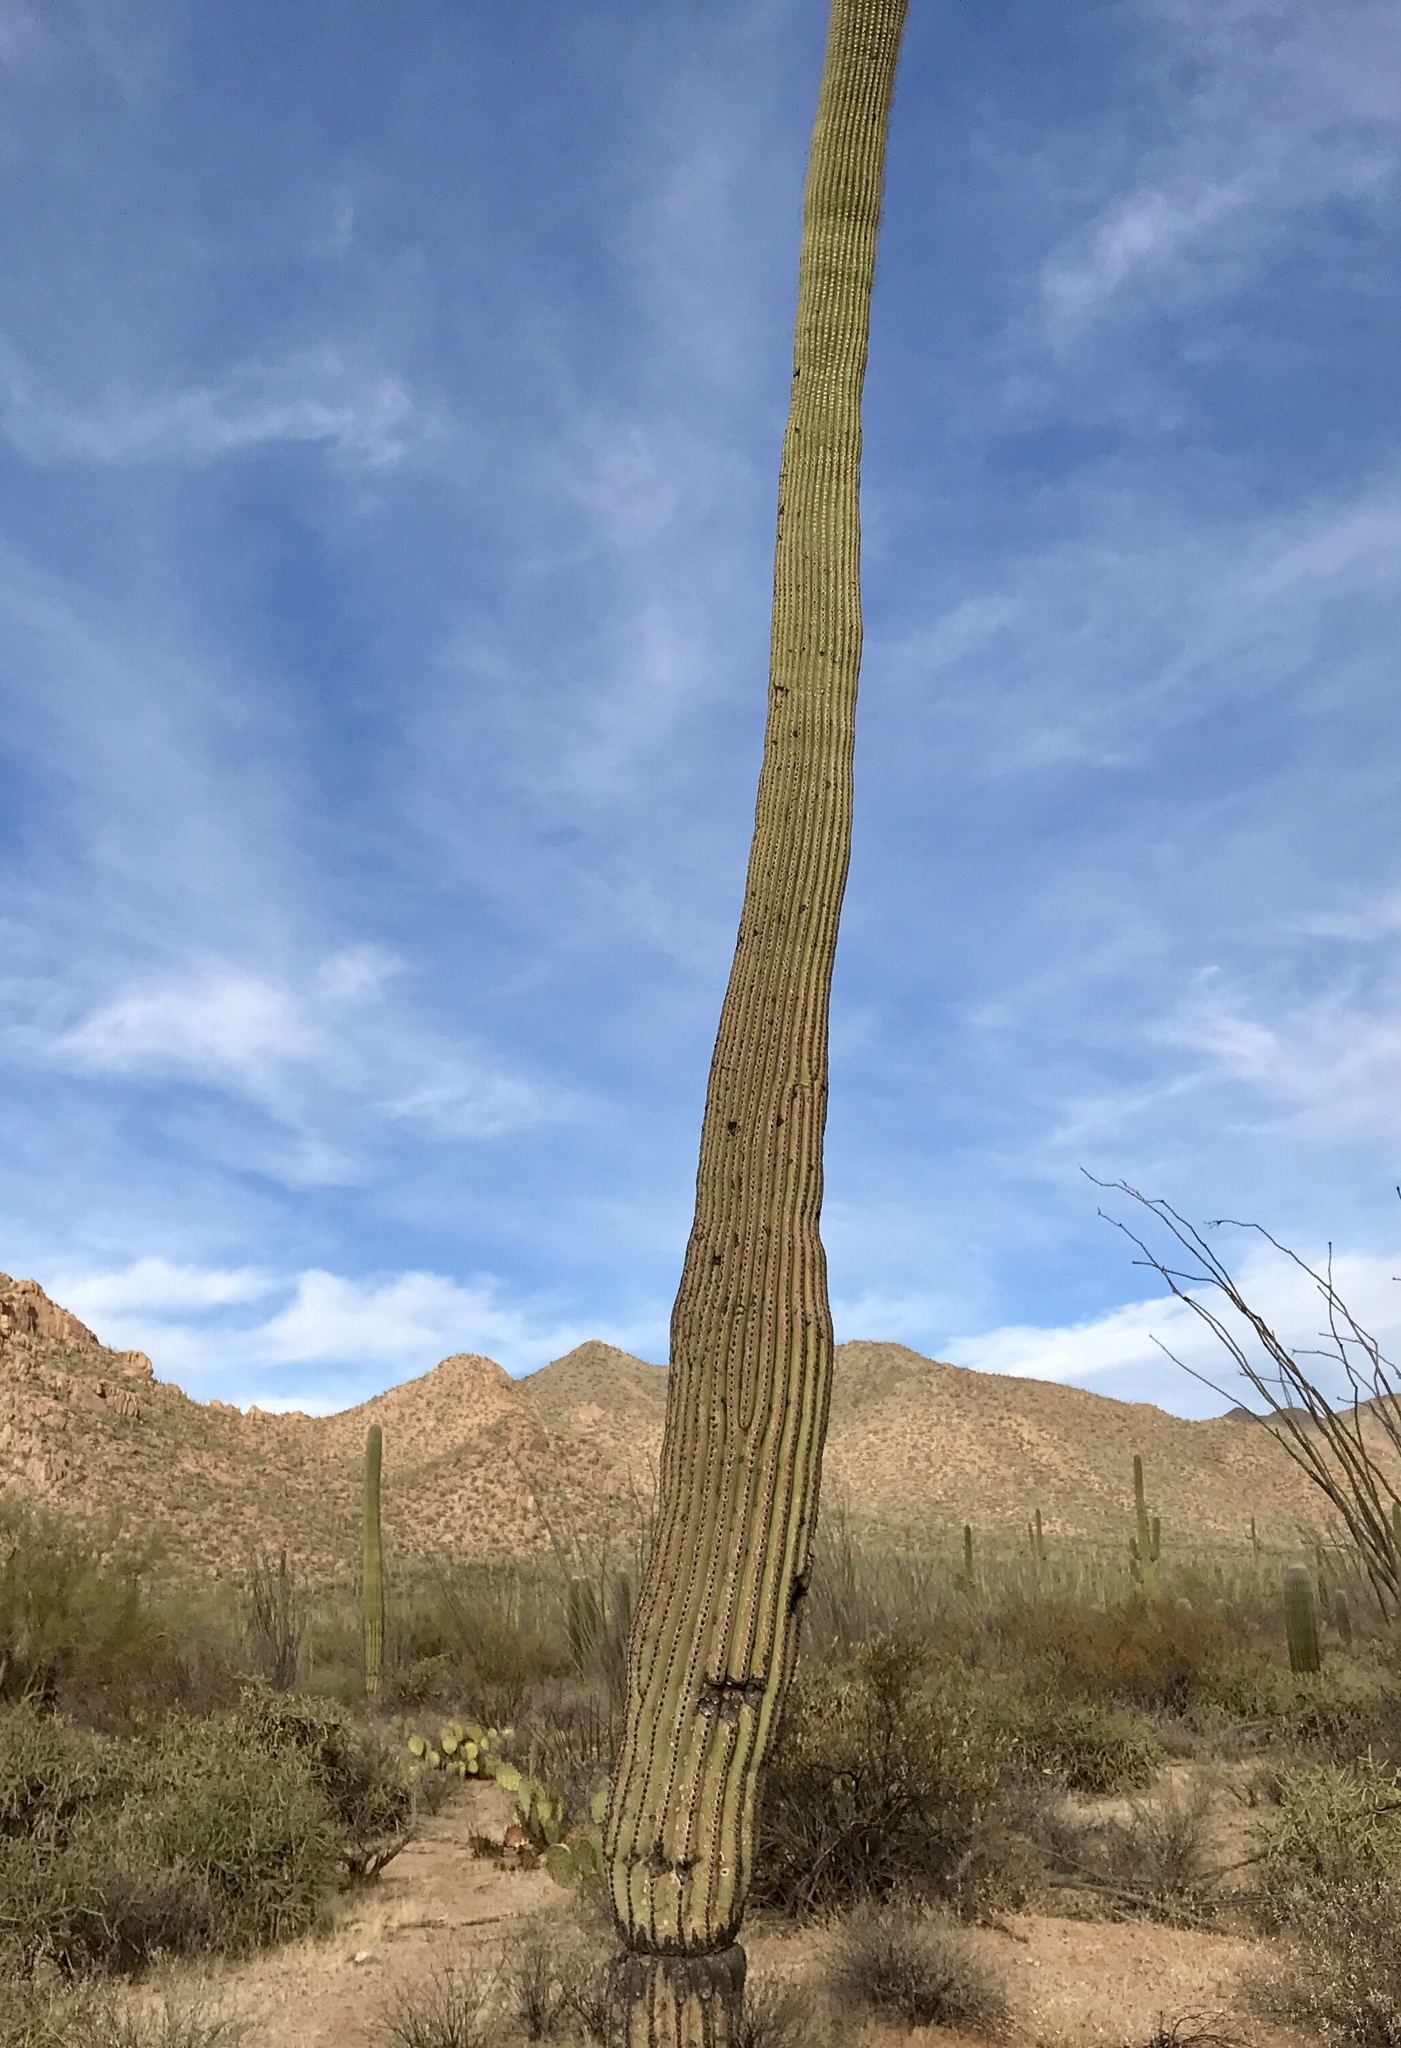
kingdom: Plantae
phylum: Tracheophyta
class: Magnoliopsida
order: Caryophyllales
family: Cactaceae
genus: Carnegiea
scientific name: Carnegiea gigantea
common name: Saguaro
